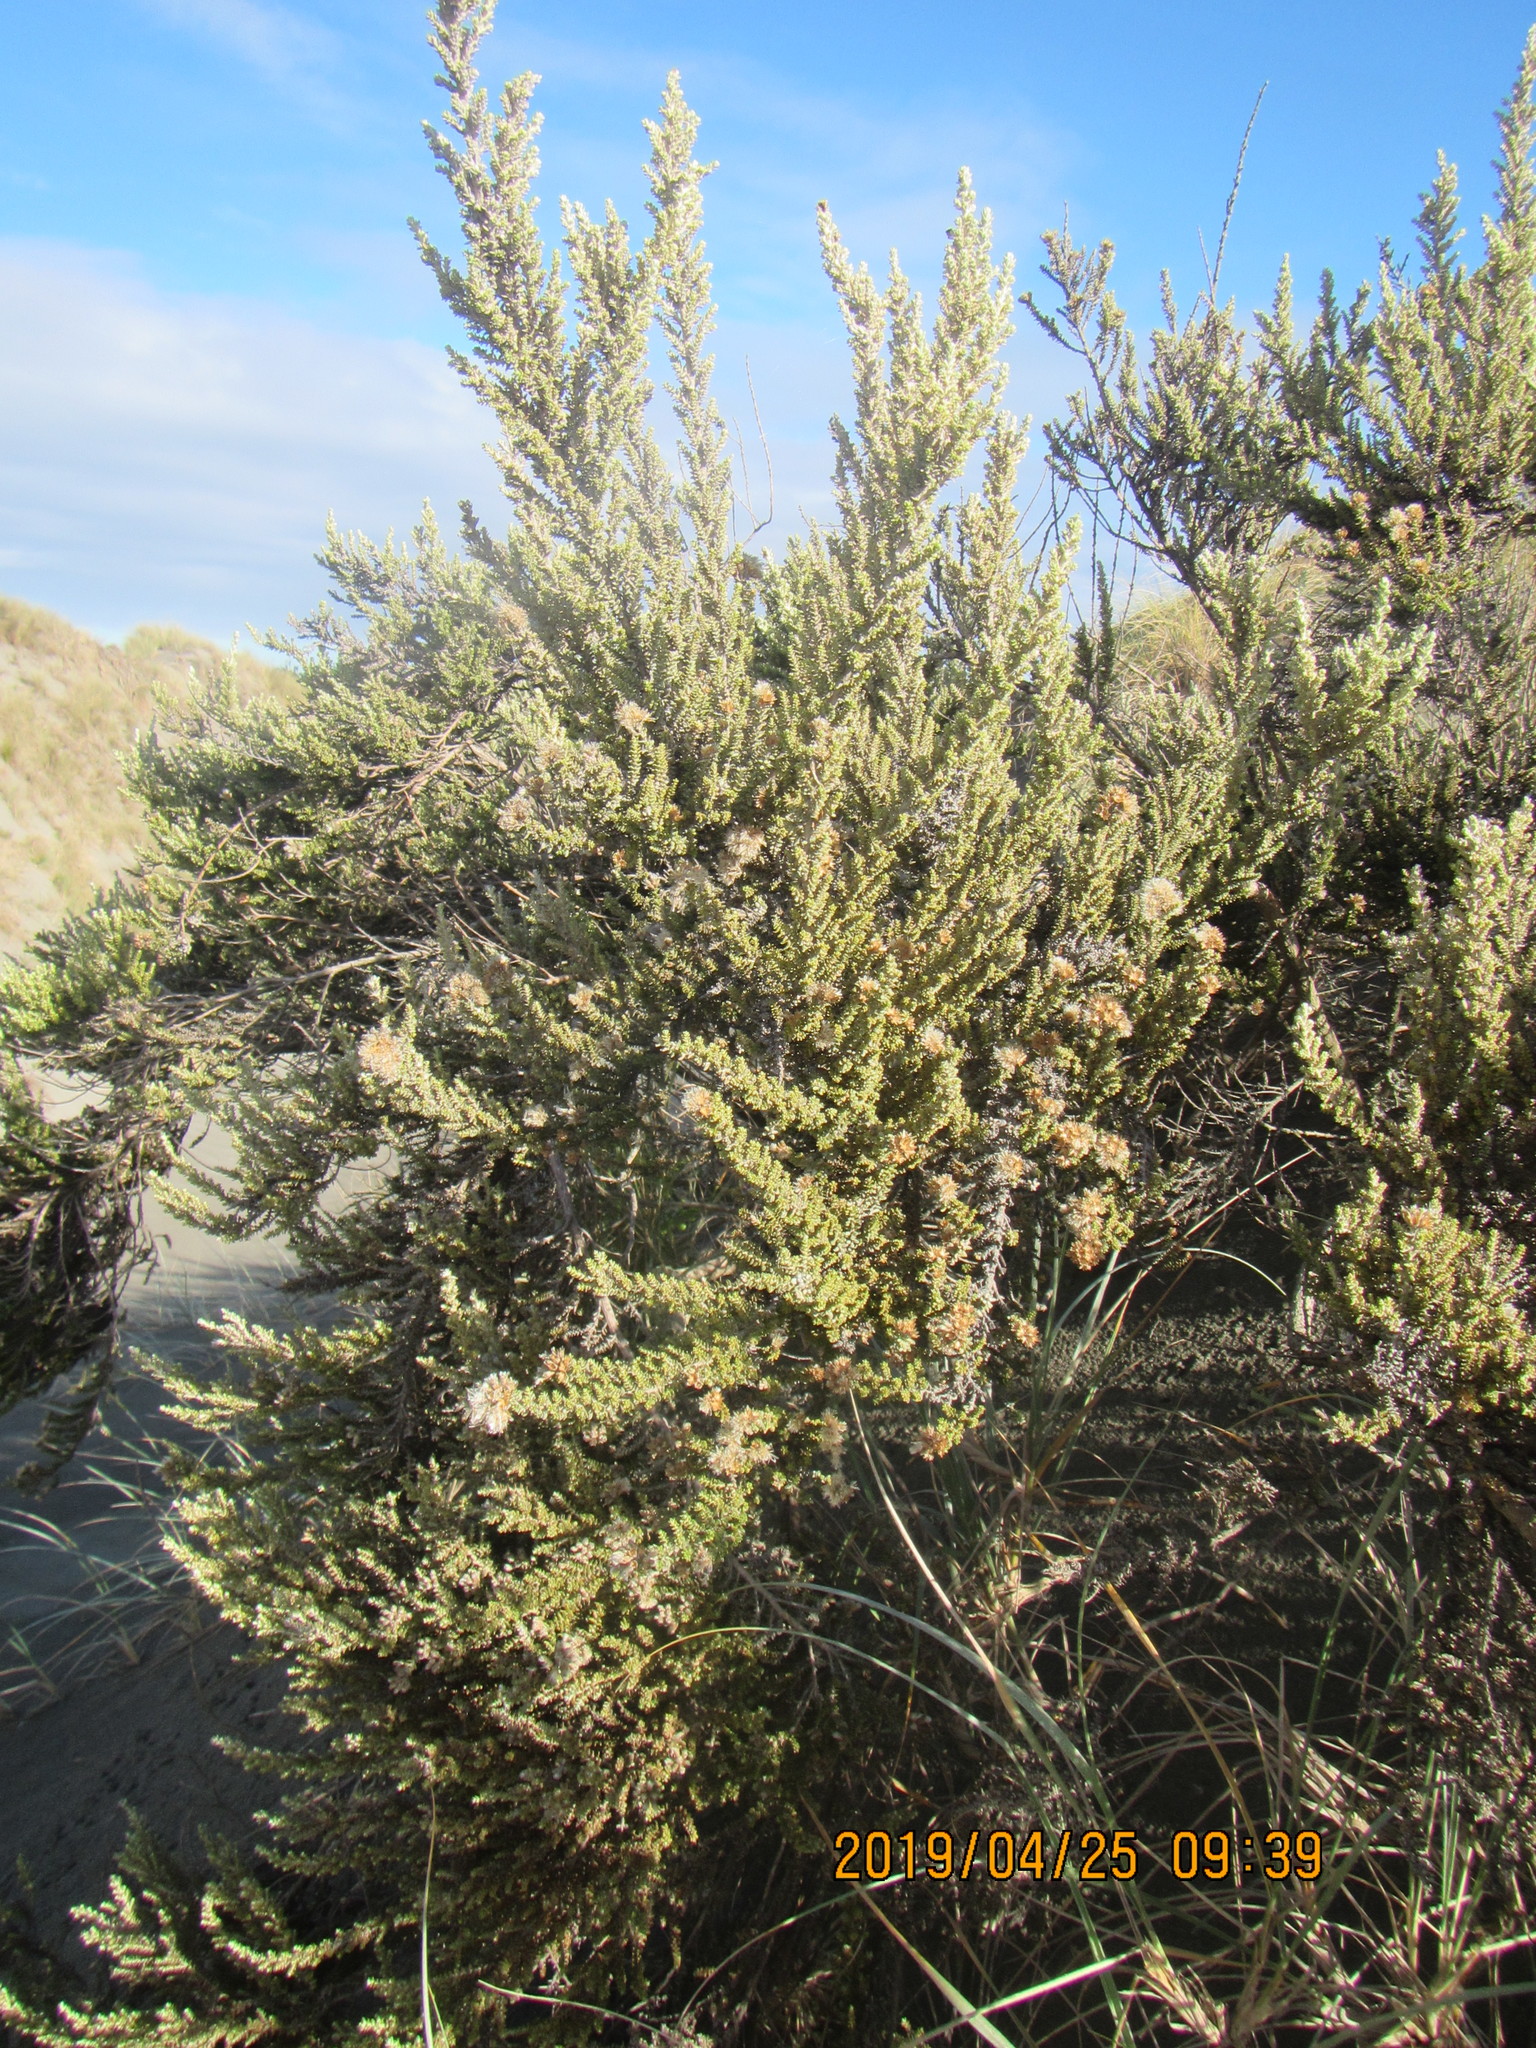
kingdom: Plantae
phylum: Tracheophyta
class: Magnoliopsida
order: Asterales
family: Asteraceae
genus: Ozothamnus
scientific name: Ozothamnus leptophyllus
